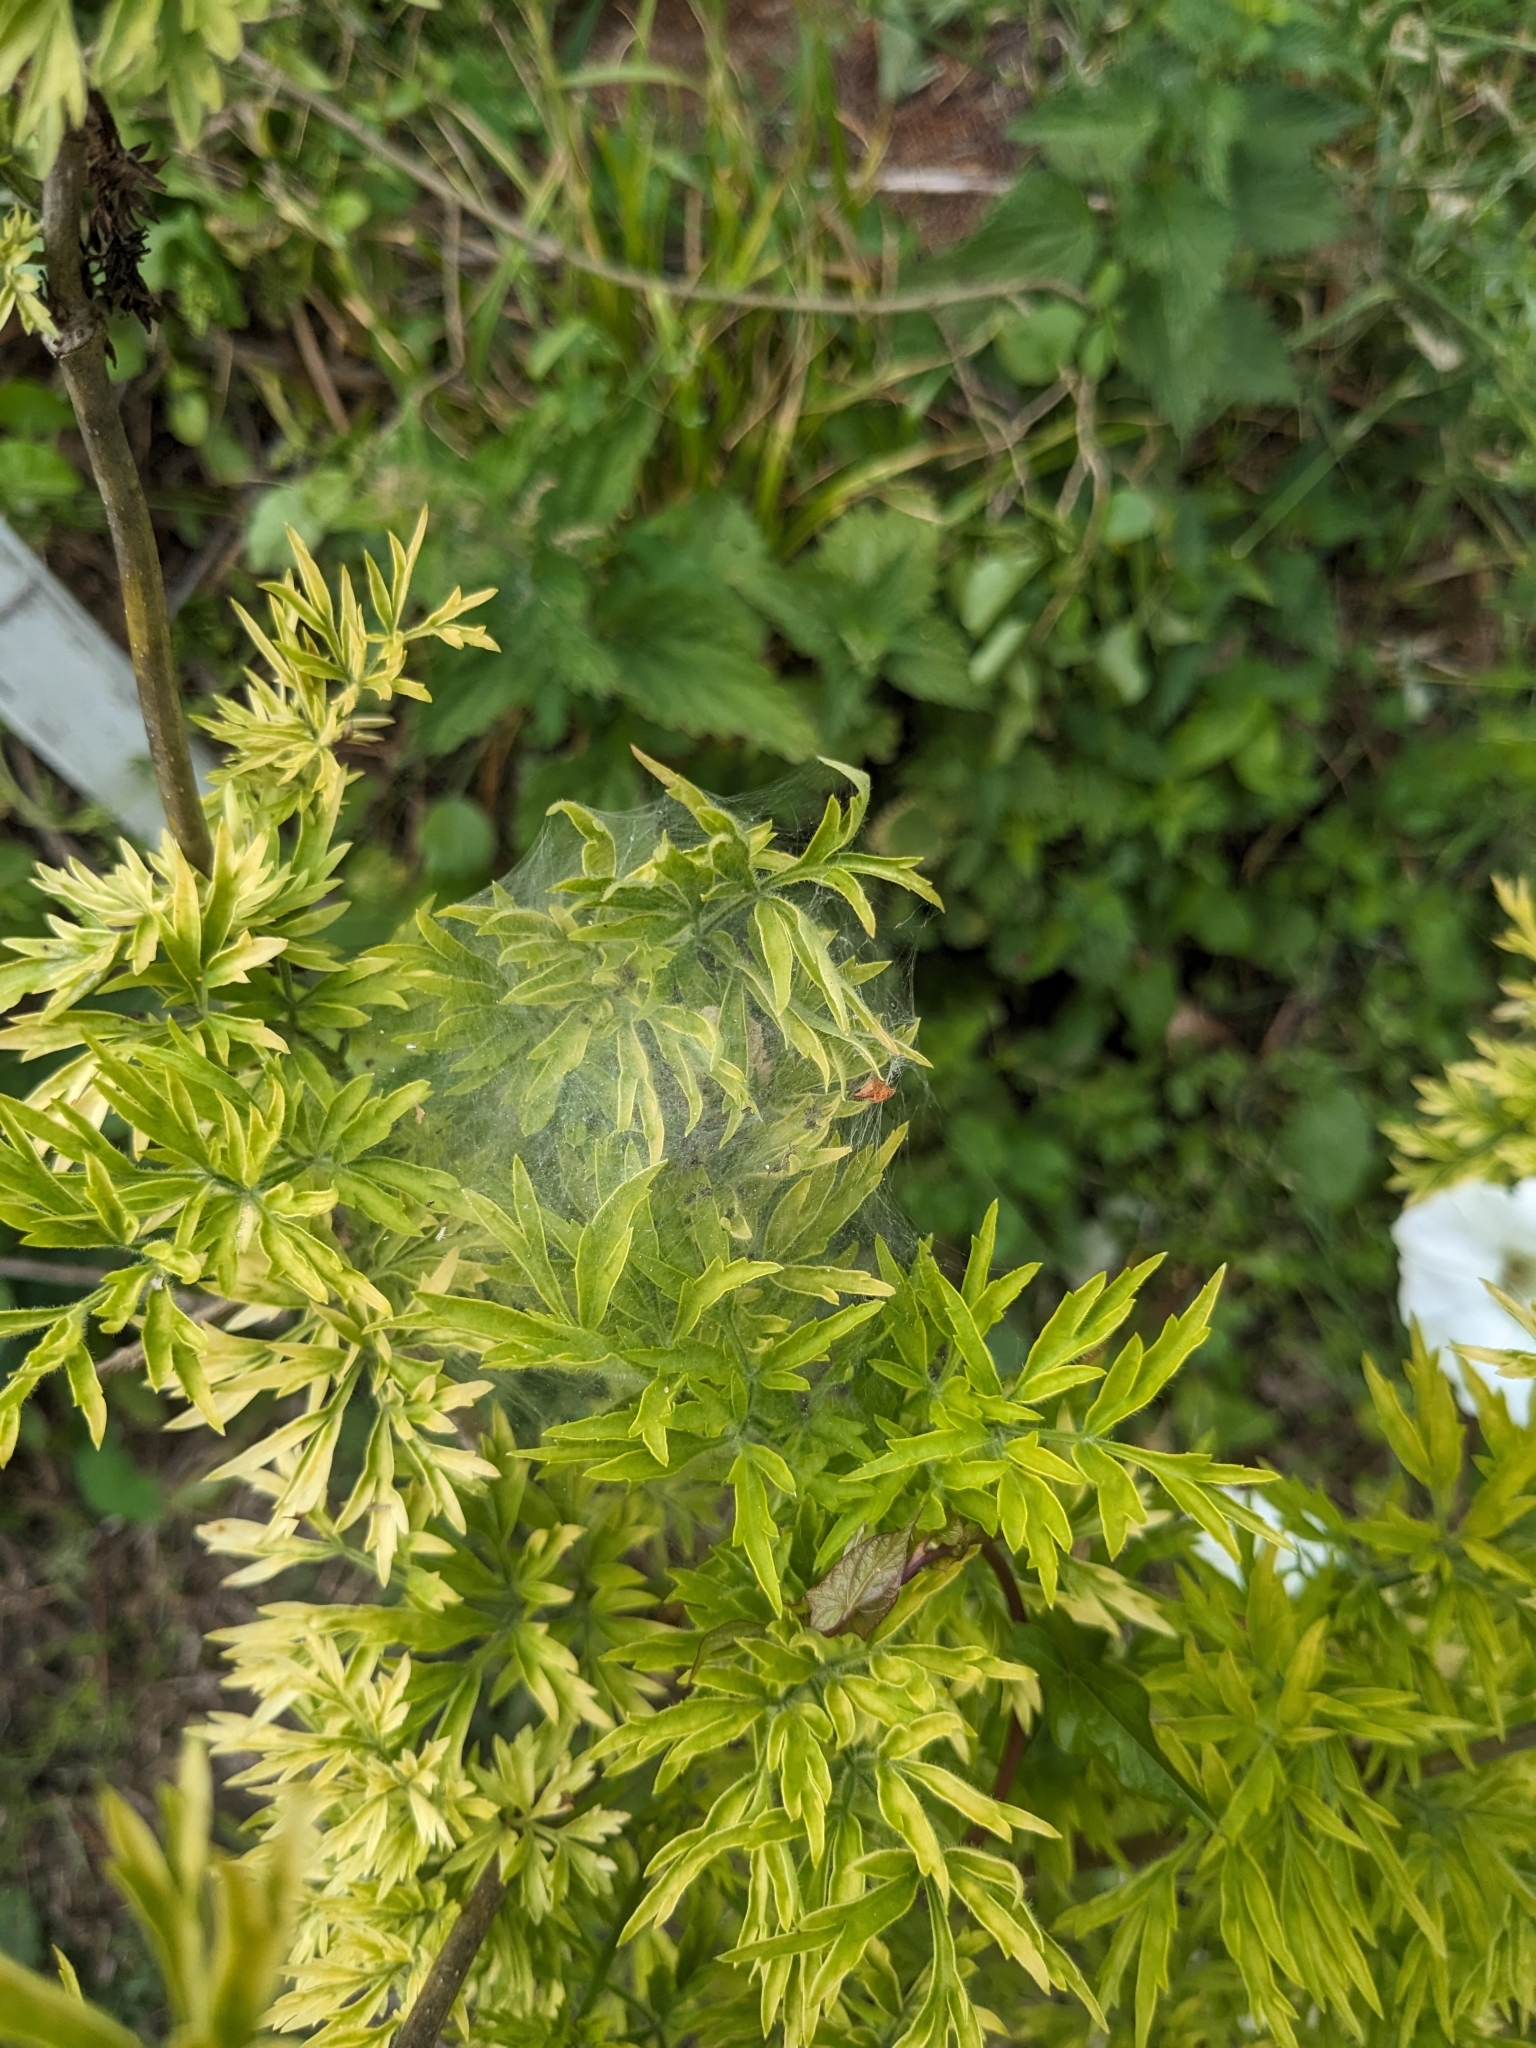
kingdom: Animalia
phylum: Arthropoda
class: Arachnida
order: Araneae
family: Pisauridae
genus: Pisaura
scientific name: Pisaura mirabilis
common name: Tent spider
